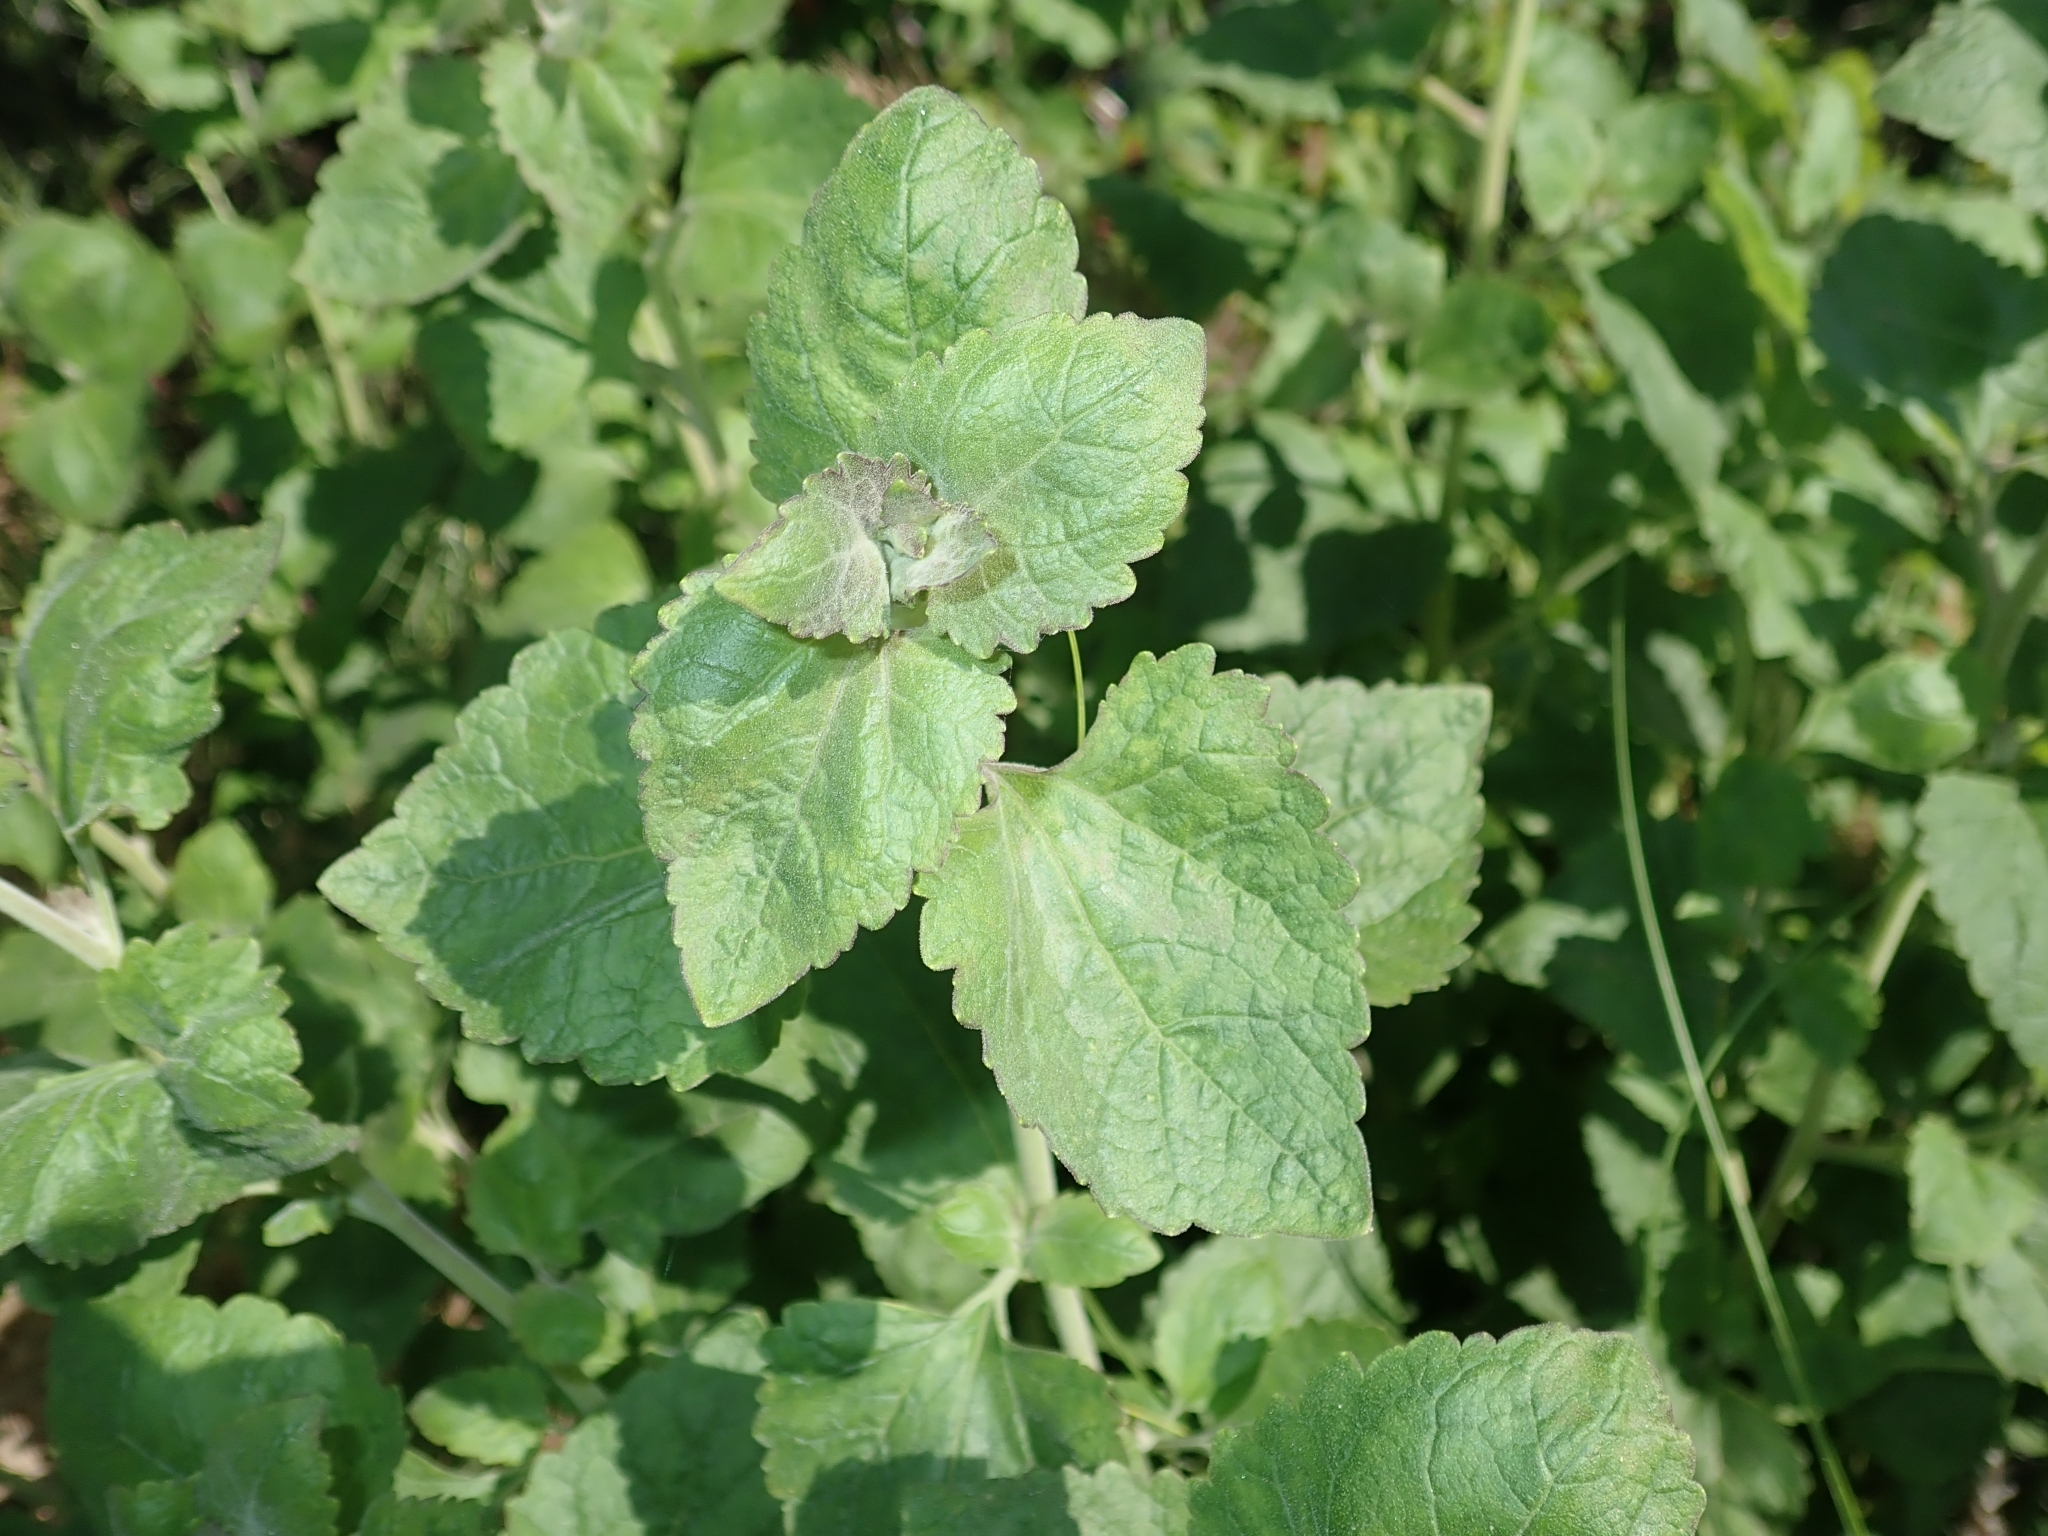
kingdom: Plantae
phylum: Tracheophyta
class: Magnoliopsida
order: Asterales
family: Asteraceae
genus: Brickellia
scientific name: Brickellia californica
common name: California brickellbush
